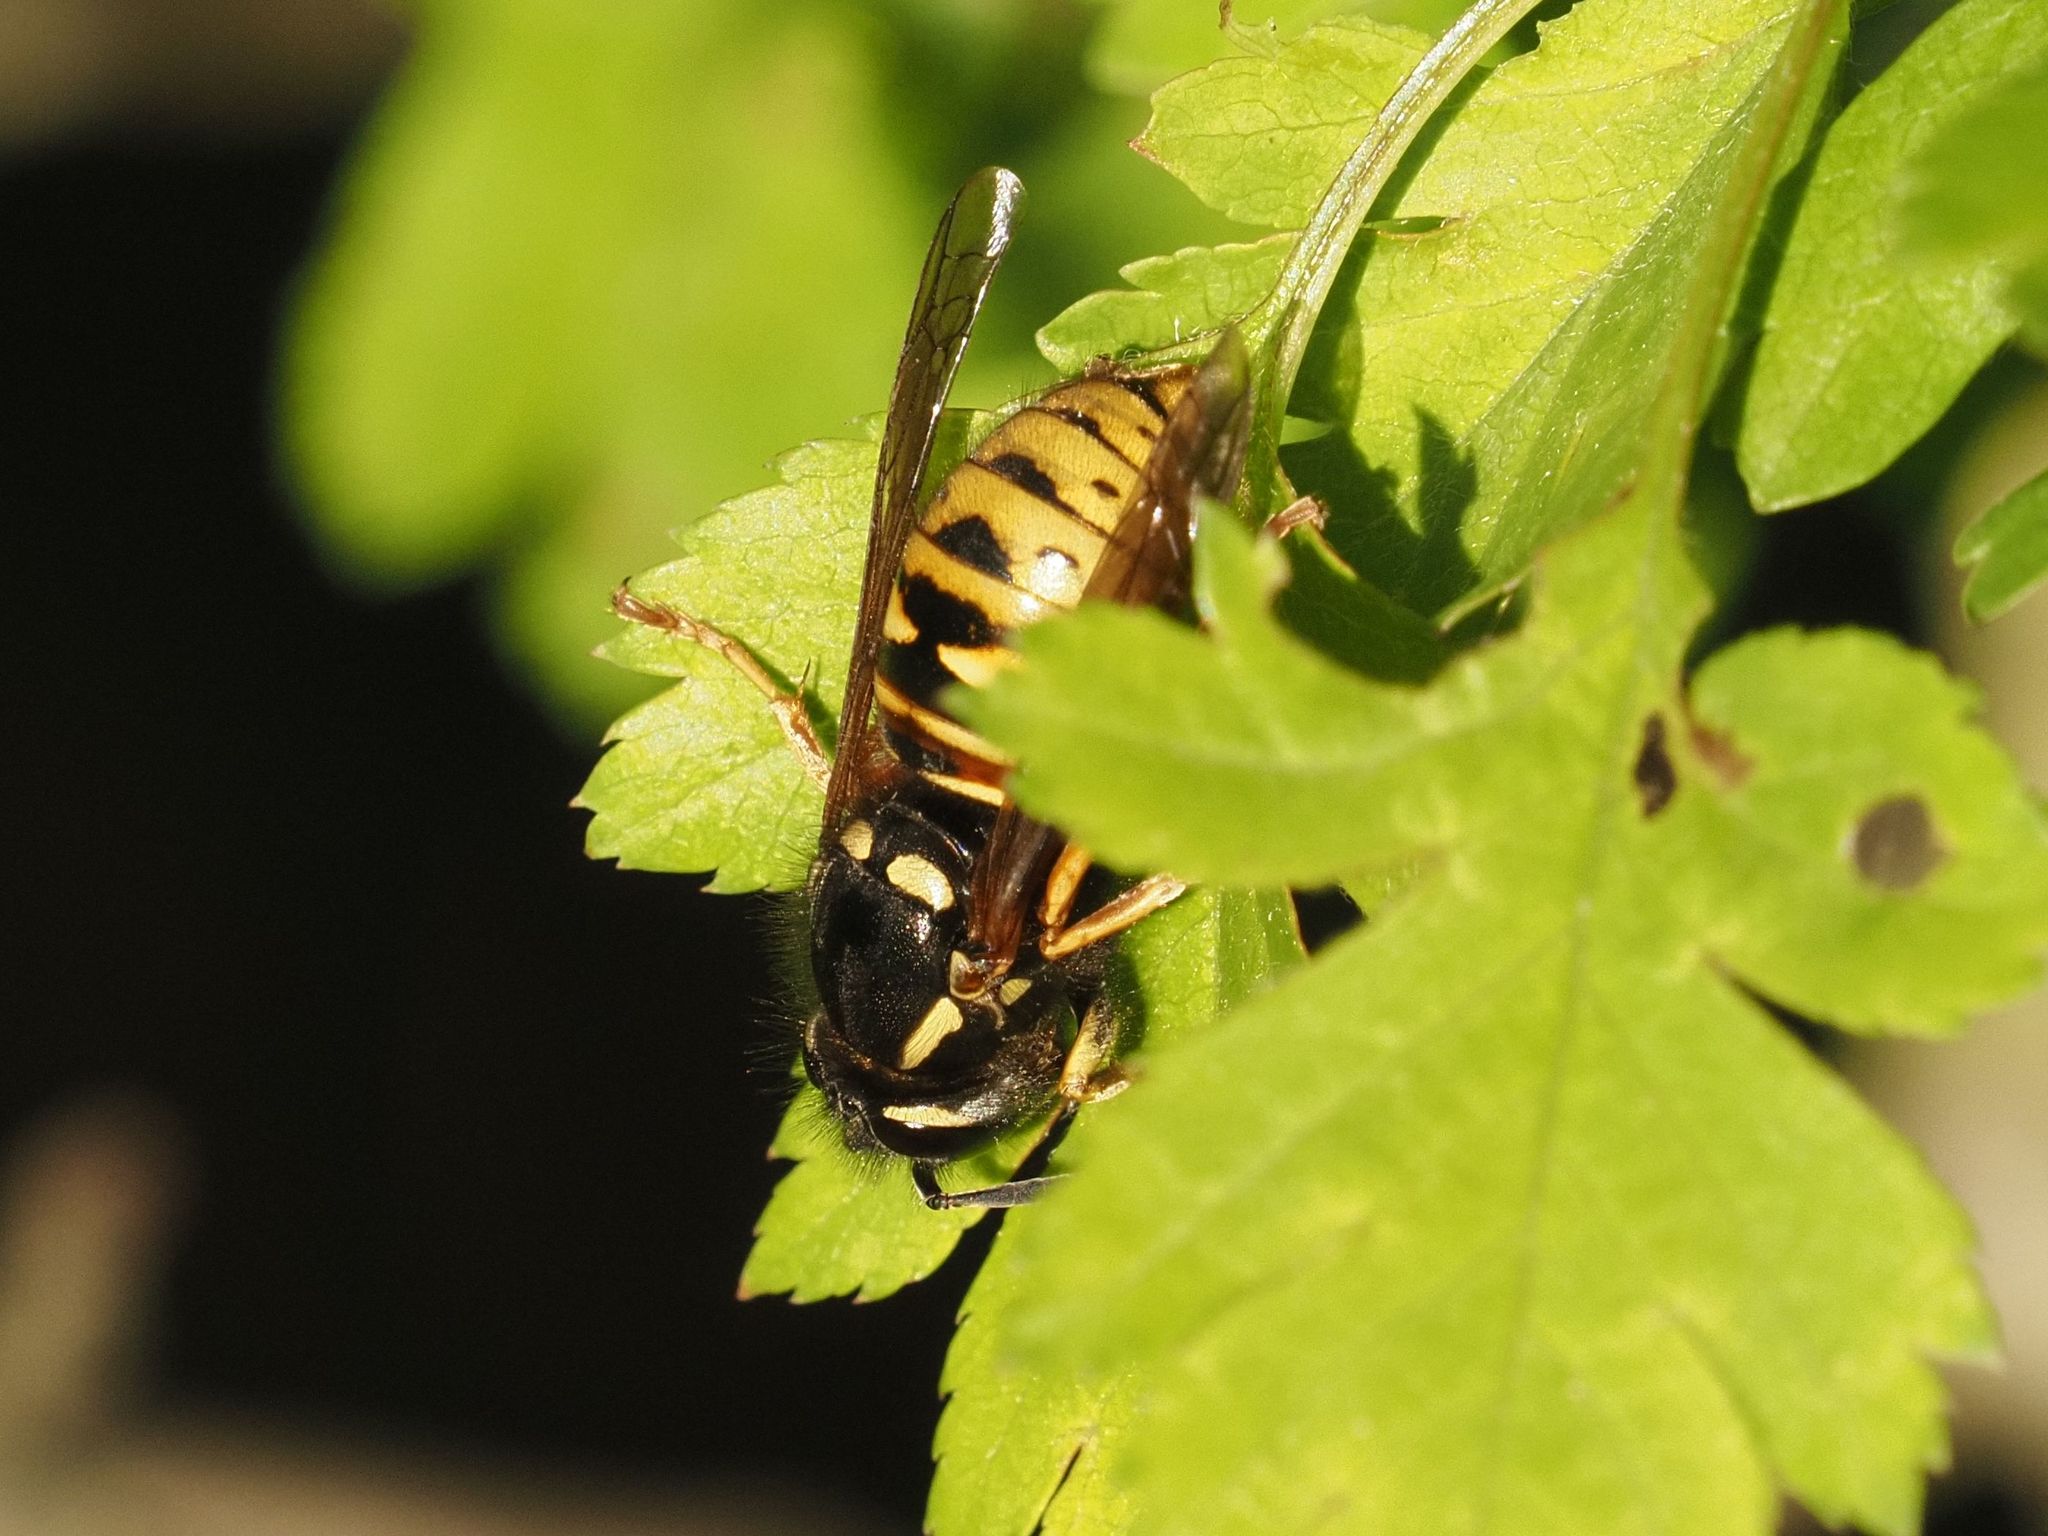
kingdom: Animalia
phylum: Arthropoda
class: Insecta
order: Hymenoptera
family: Vespidae
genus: Vespula
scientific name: Vespula rufa
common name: Red wasp
